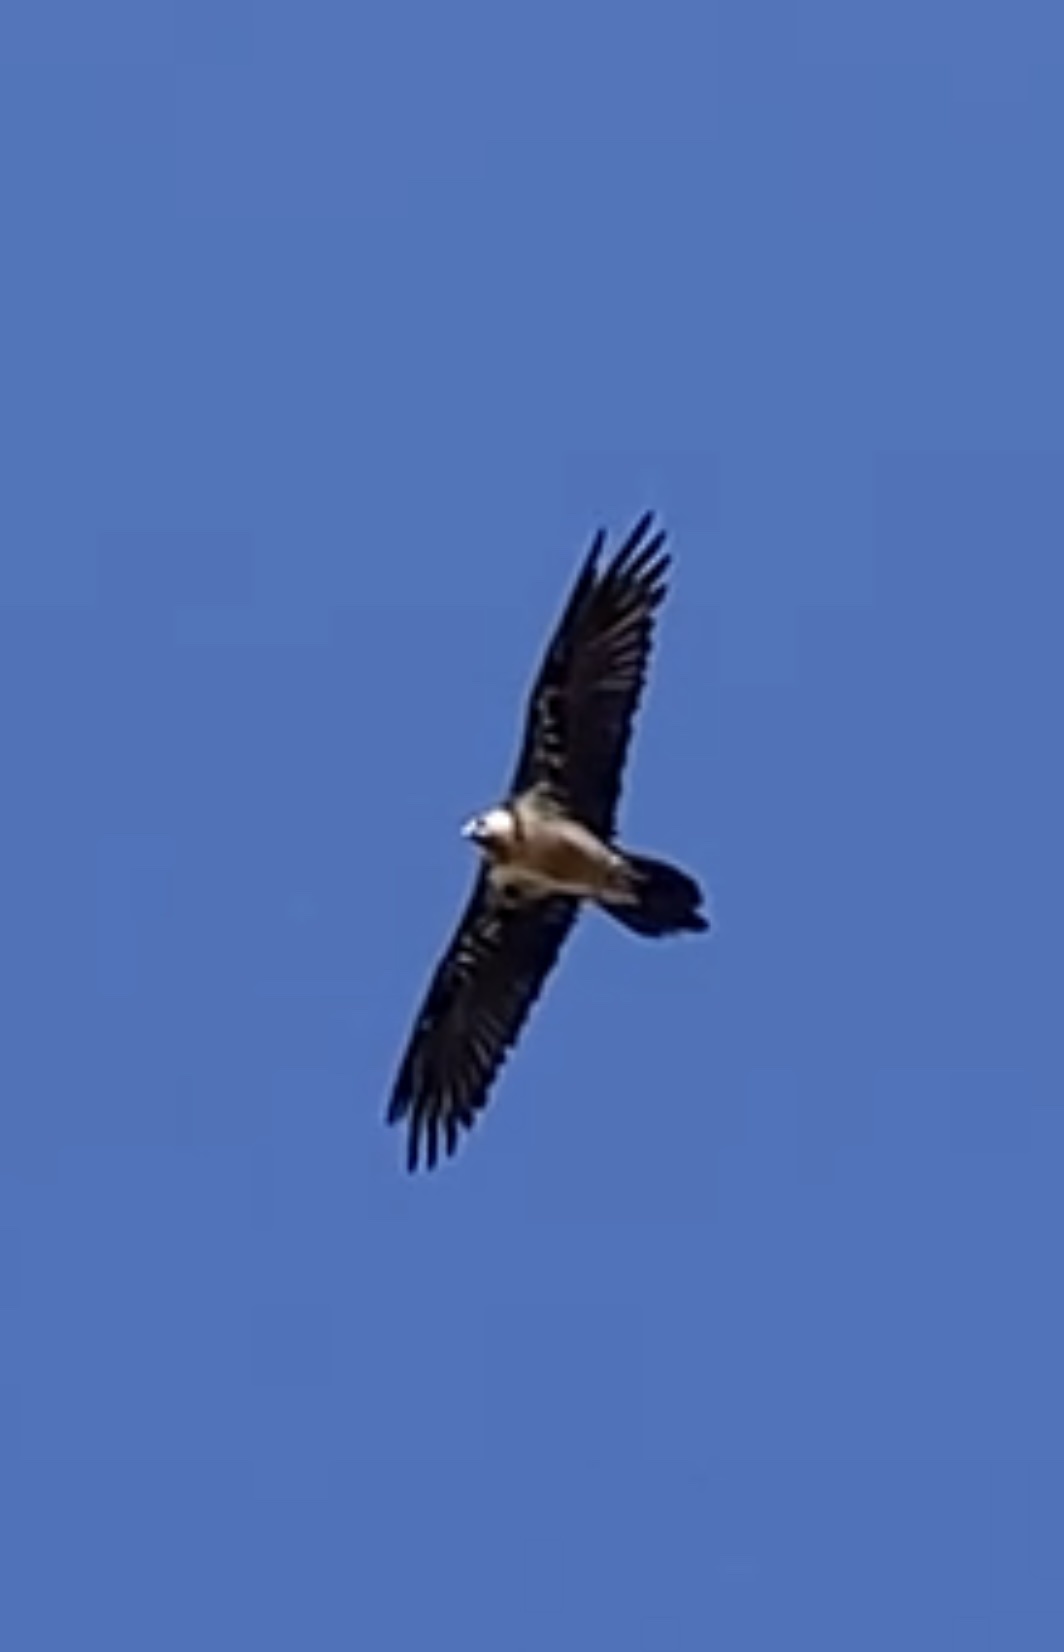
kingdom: Animalia
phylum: Chordata
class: Aves
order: Accipitriformes
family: Accipitridae
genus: Gypaetus
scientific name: Gypaetus barbatus
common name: Bearded vulture
